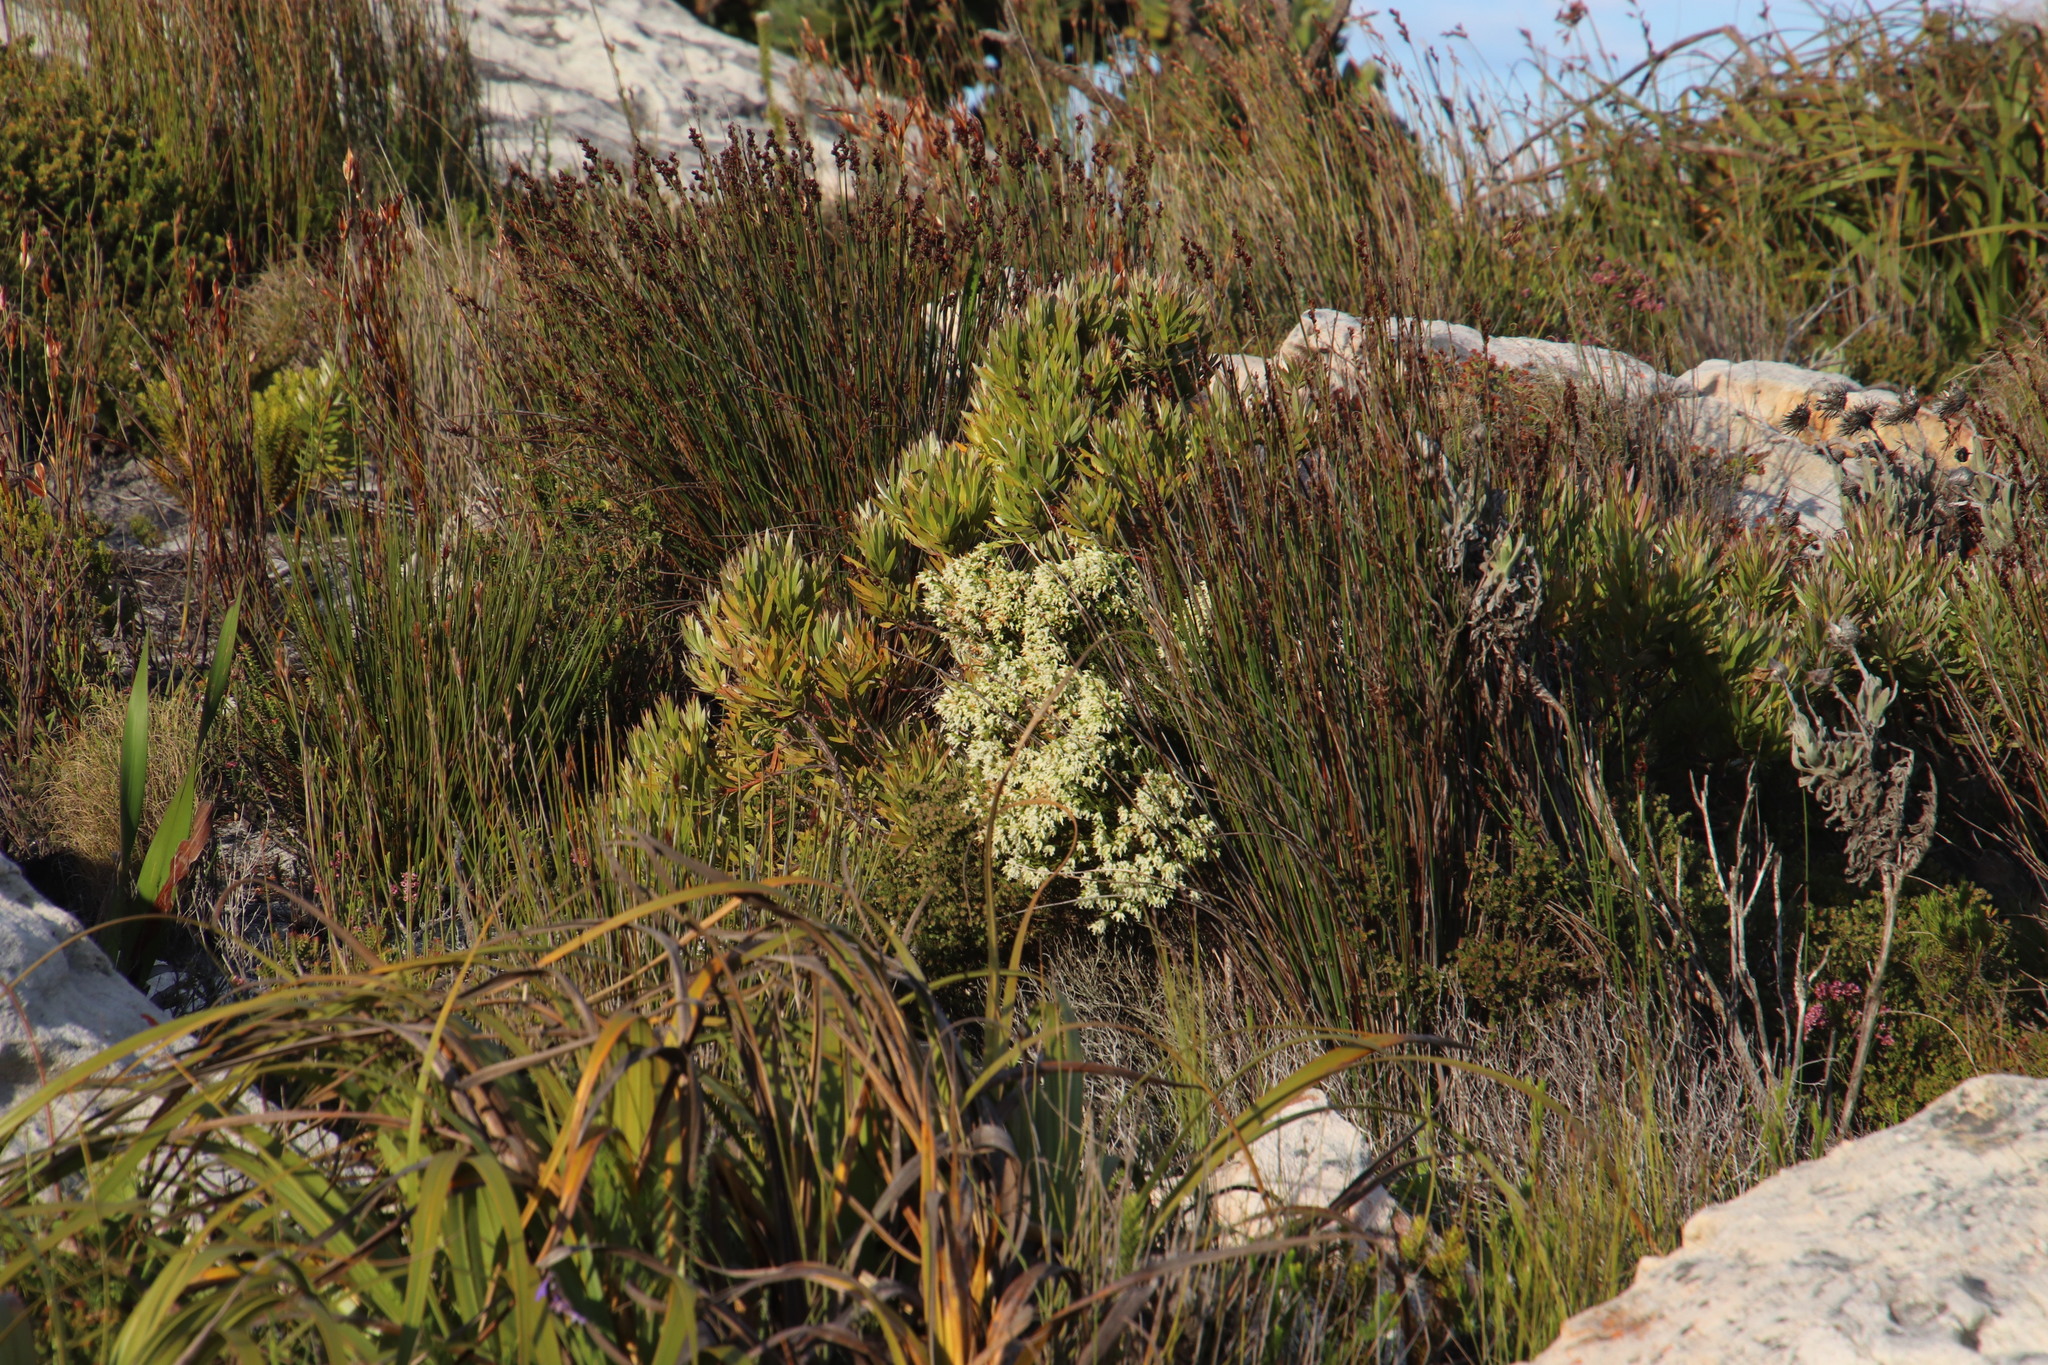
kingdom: Plantae
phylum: Tracheophyta
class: Magnoliopsida
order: Ericales
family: Ericaceae
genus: Erica
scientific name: Erica lutea
